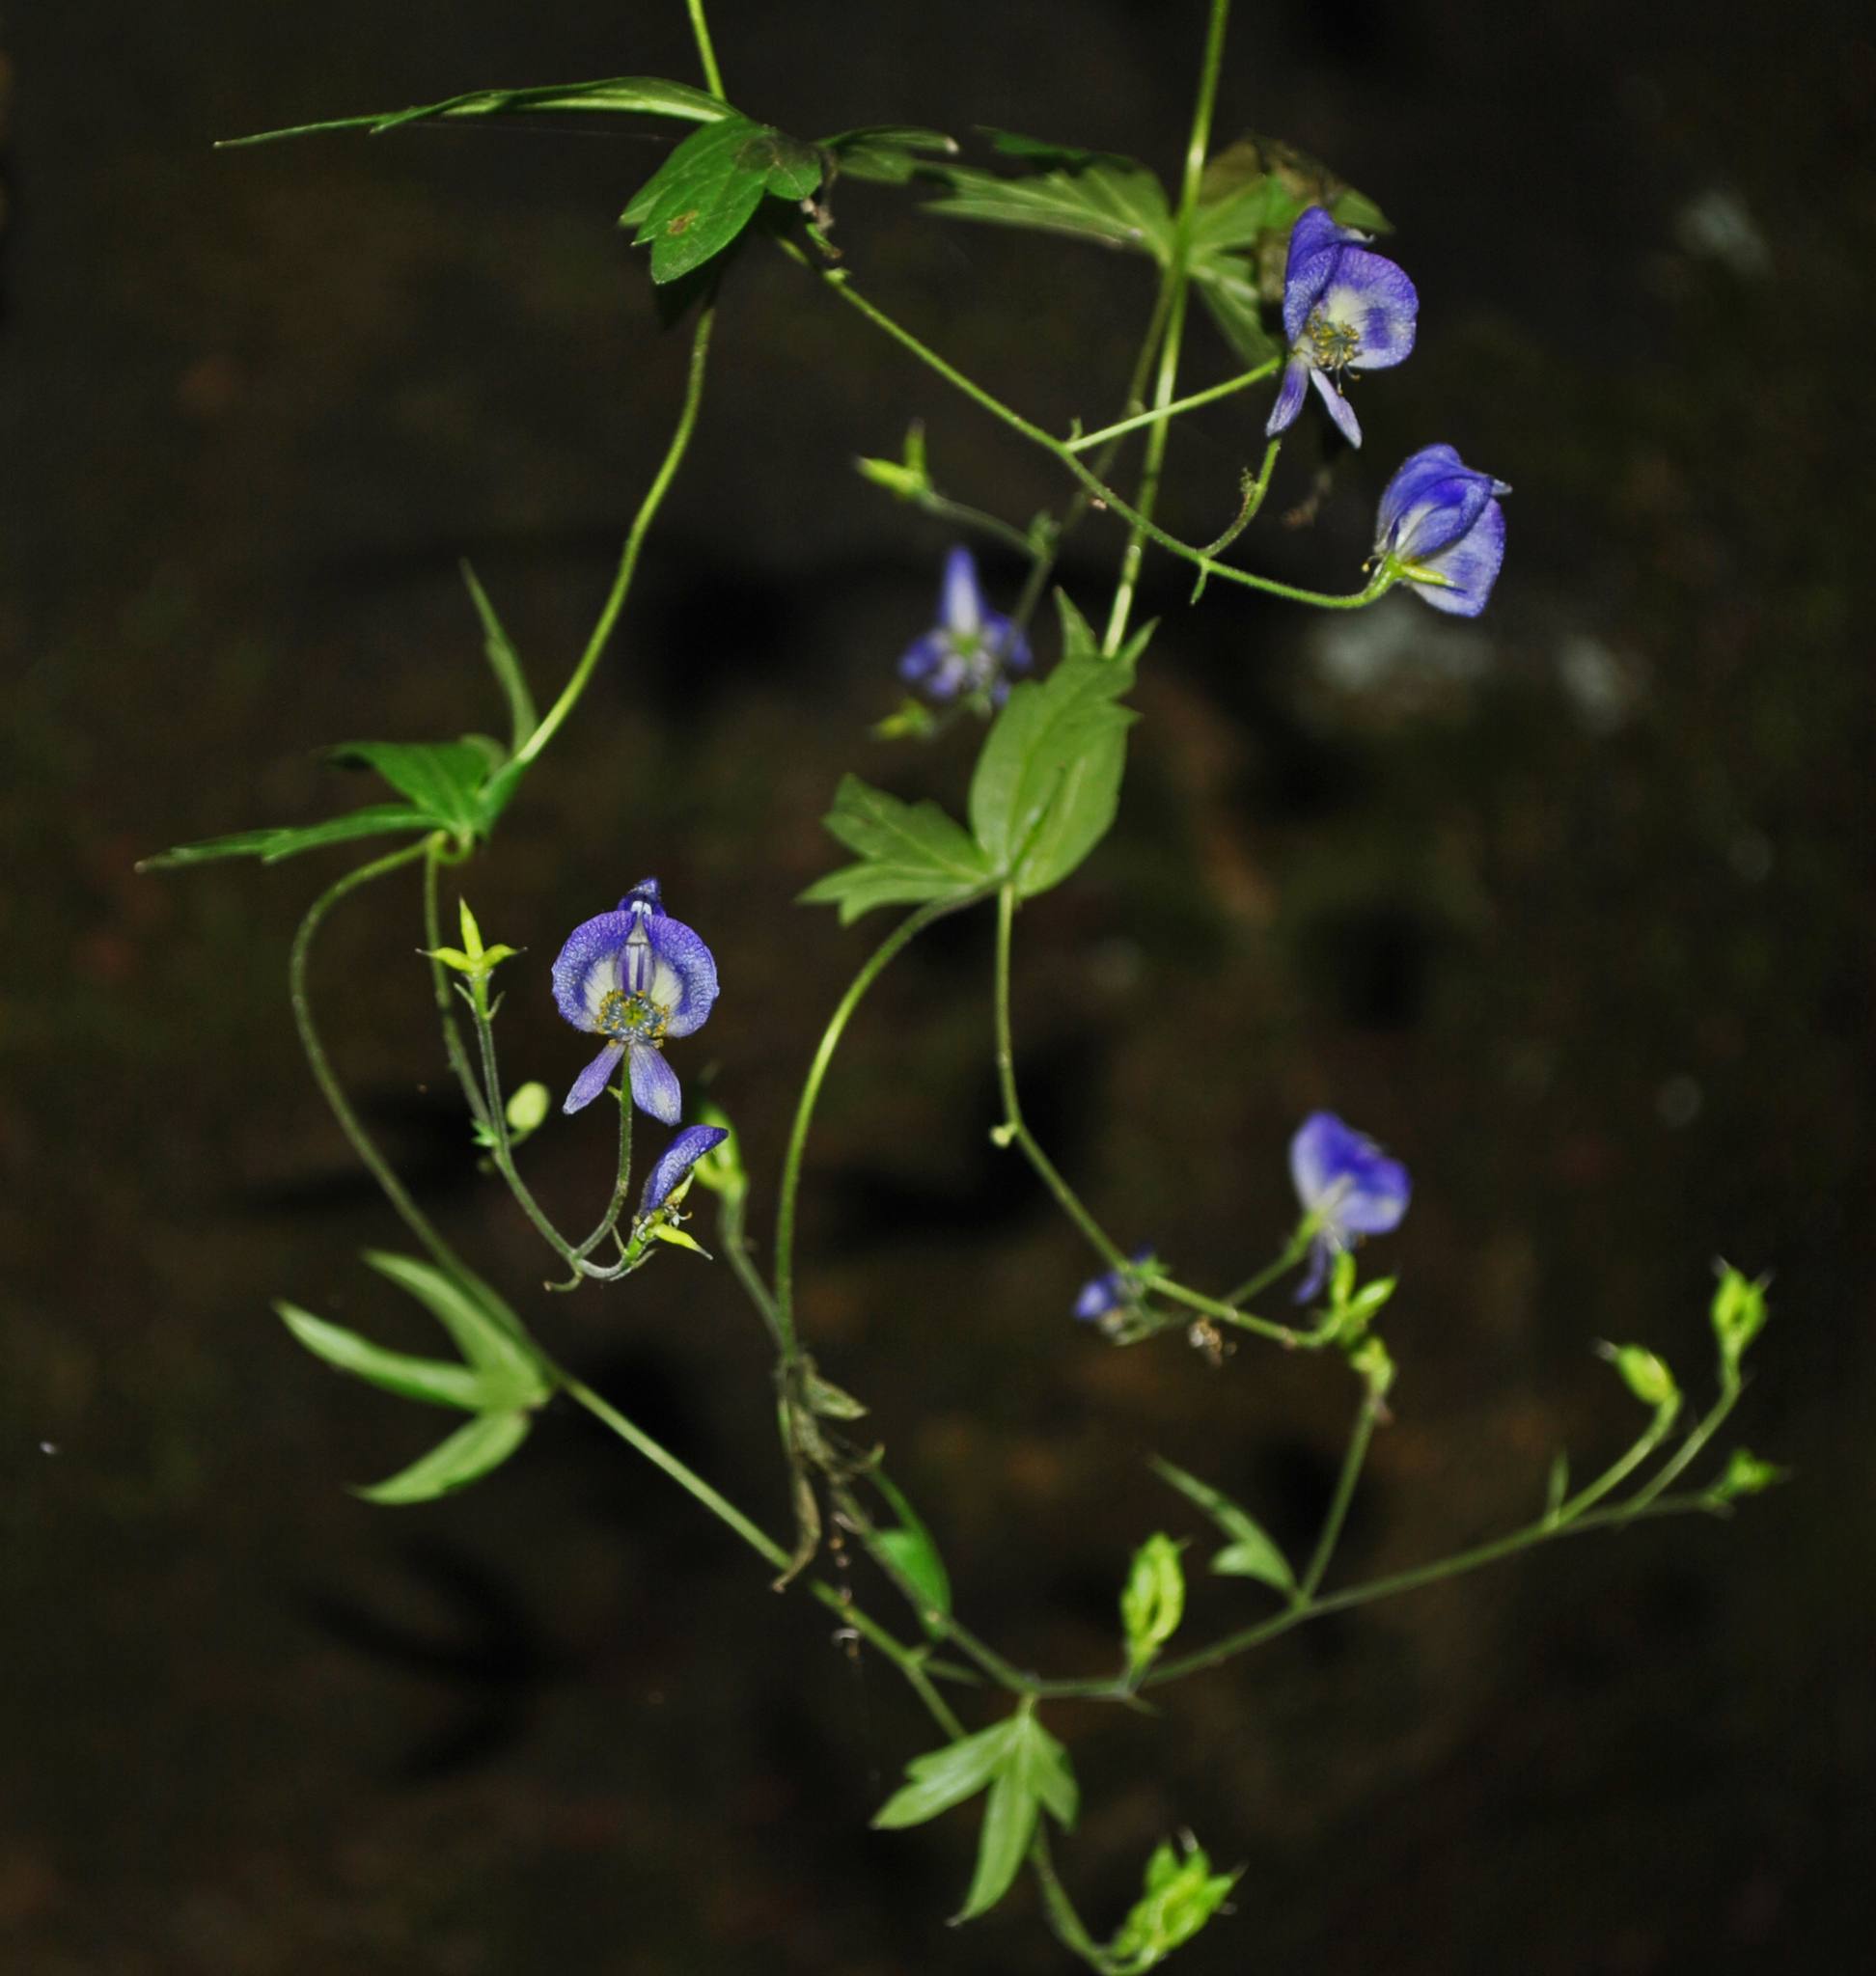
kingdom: Plantae
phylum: Tracheophyta
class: Magnoliopsida
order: Ranunculales
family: Ranunculaceae
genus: Aconitum
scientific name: Aconitum noveboracense
